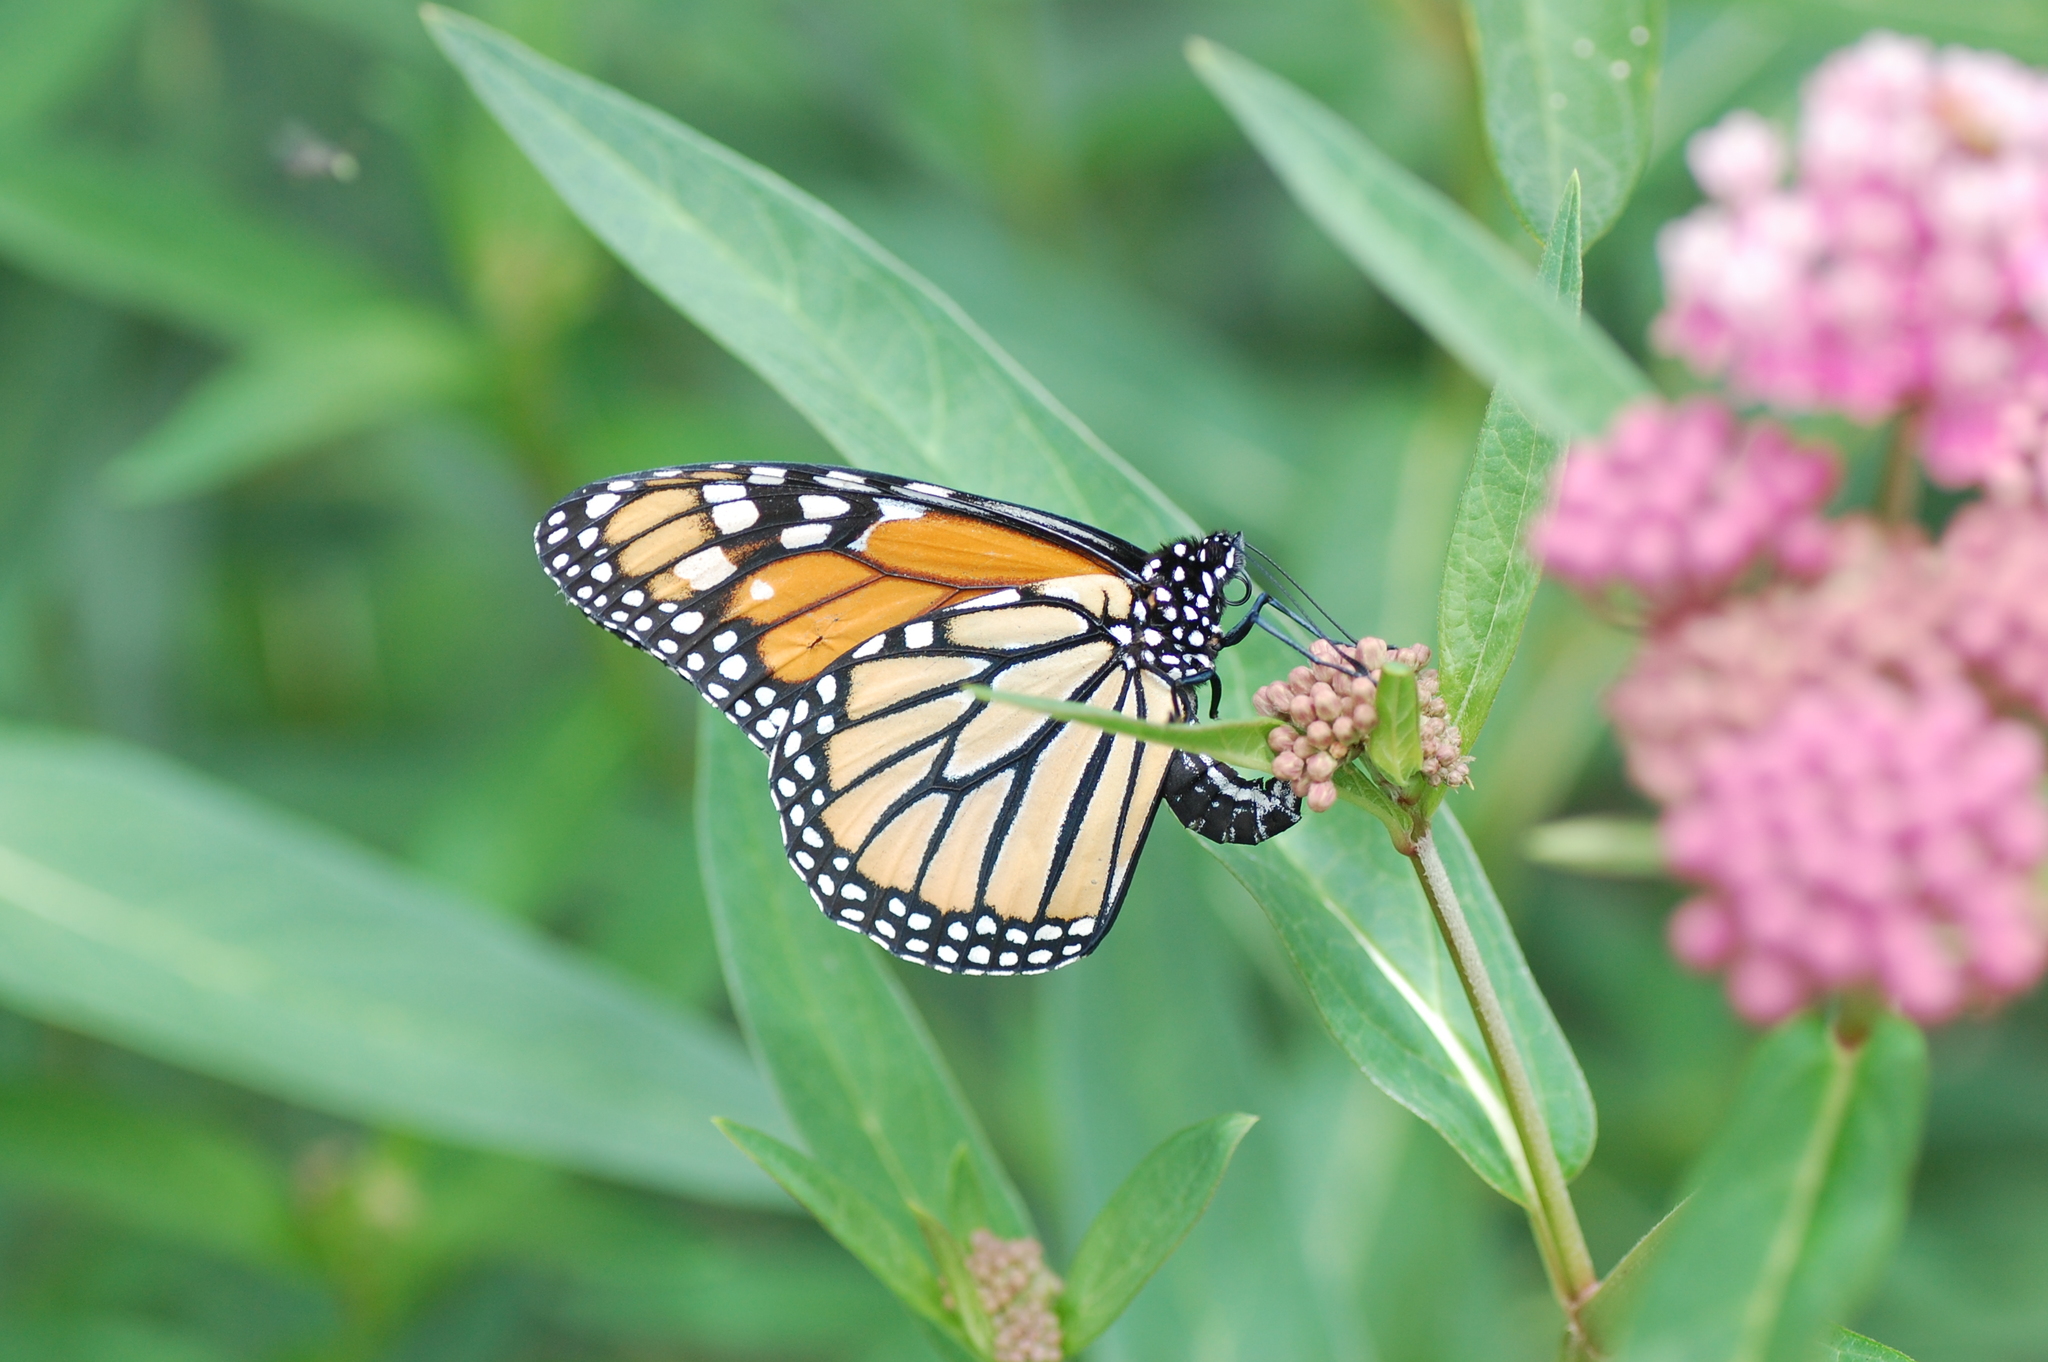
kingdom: Animalia
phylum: Arthropoda
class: Insecta
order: Lepidoptera
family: Nymphalidae
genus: Danaus
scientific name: Danaus plexippus
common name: Monarch
